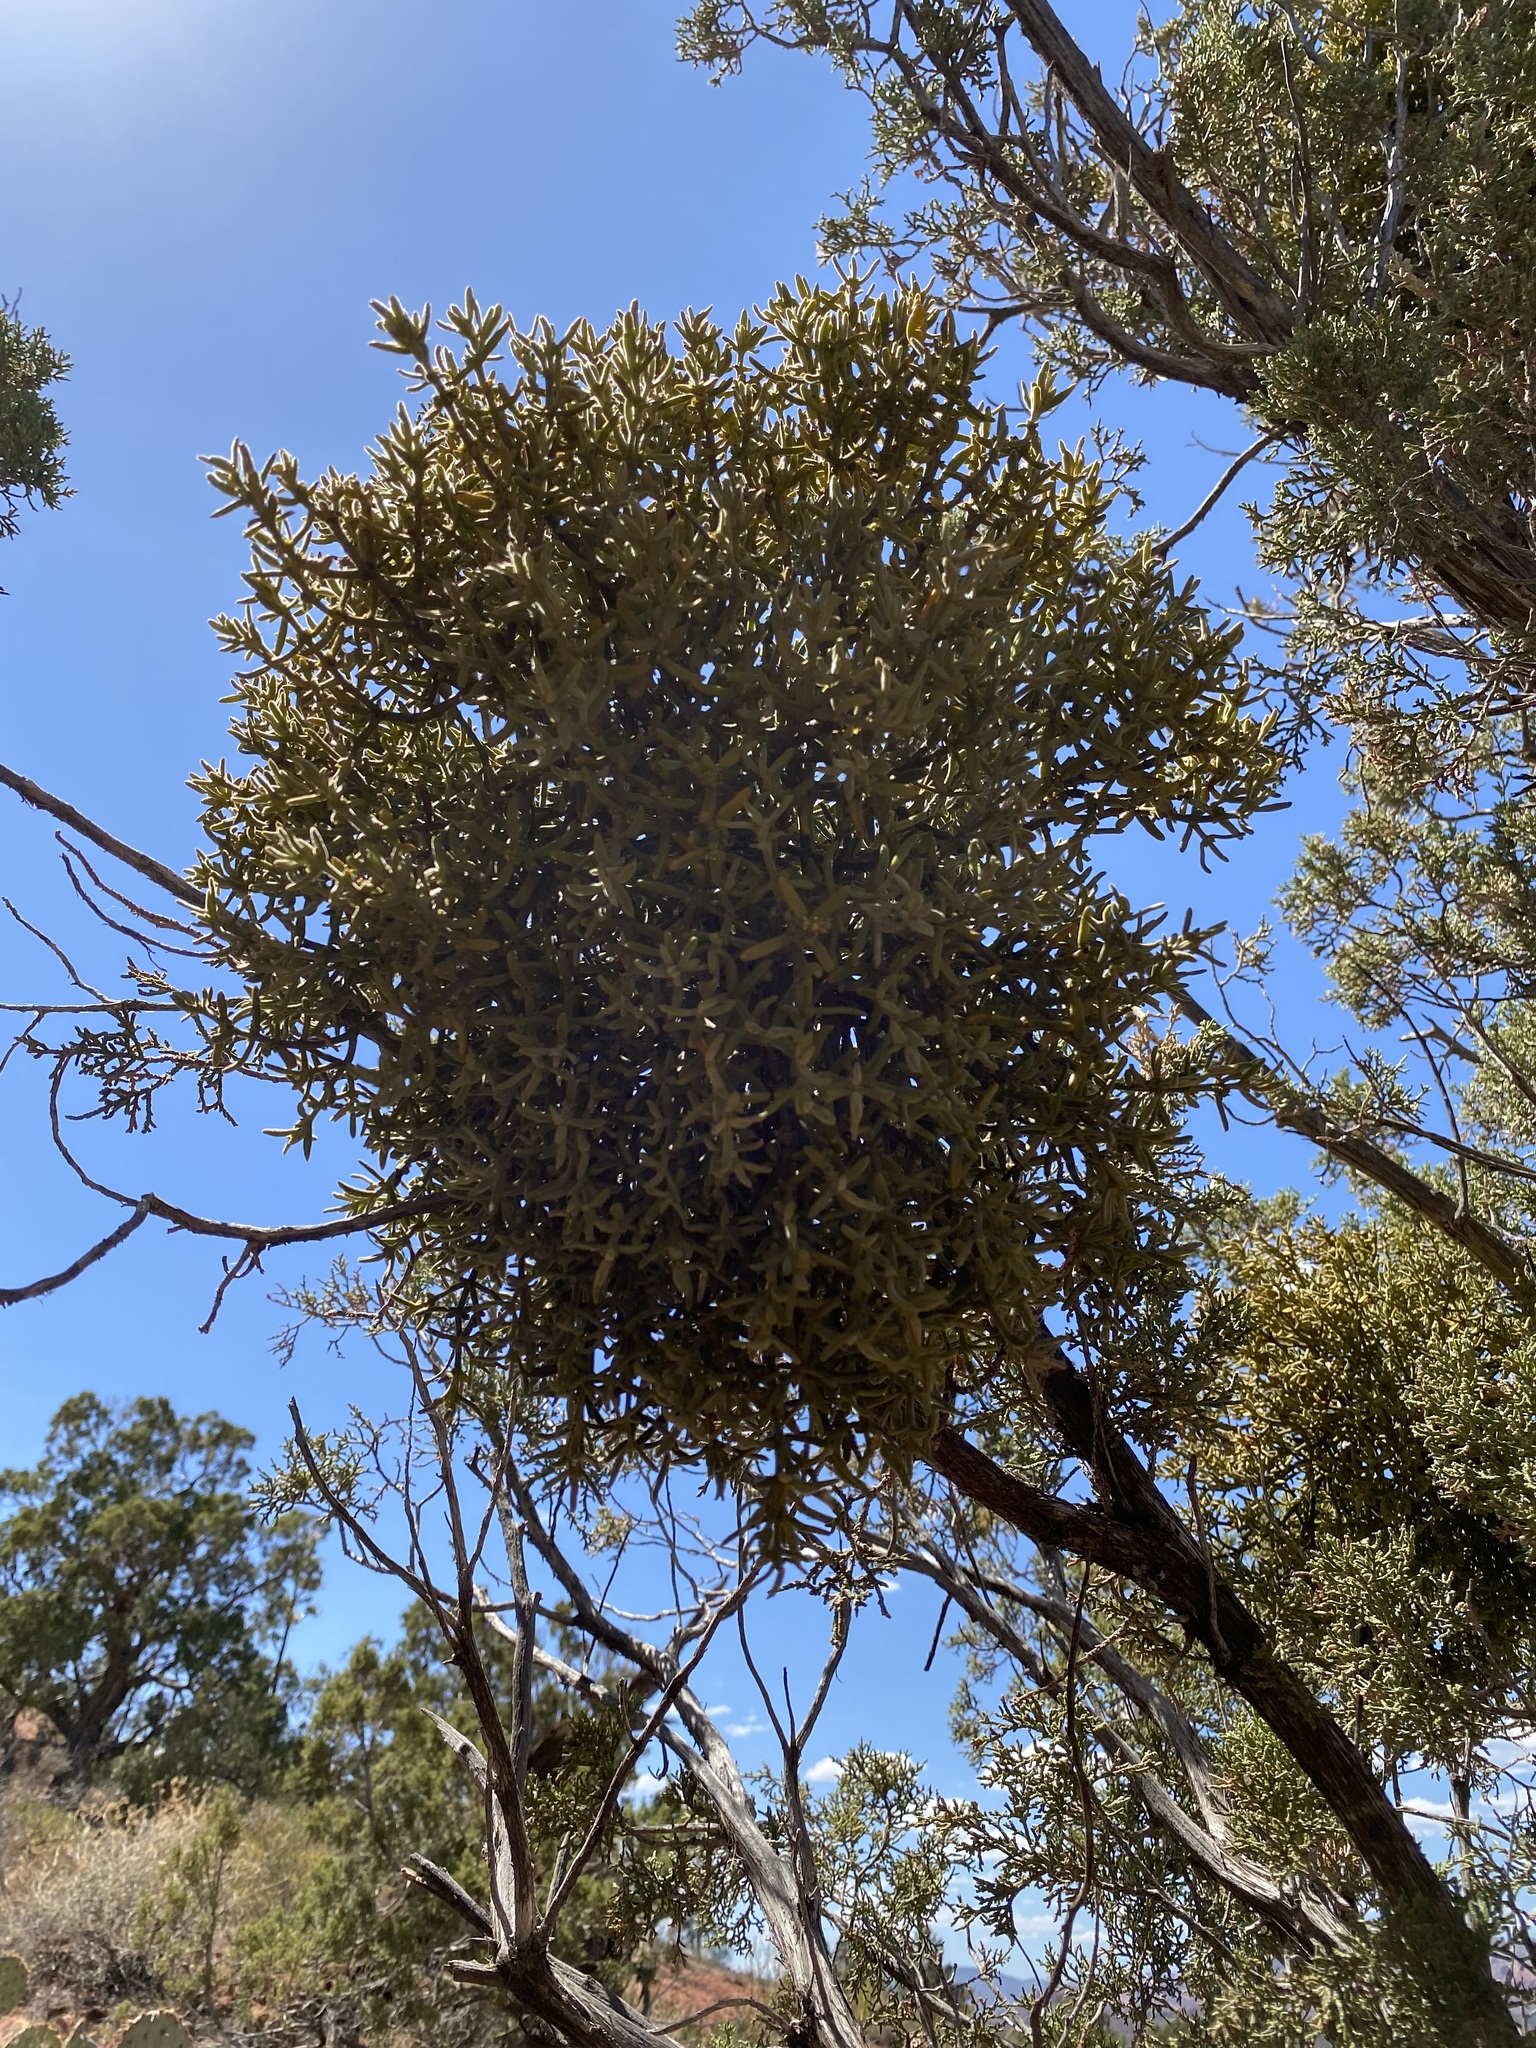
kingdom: Plantae
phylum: Tracheophyta
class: Magnoliopsida
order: Santalales
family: Viscaceae
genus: Phoradendron
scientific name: Phoradendron capitellatum
